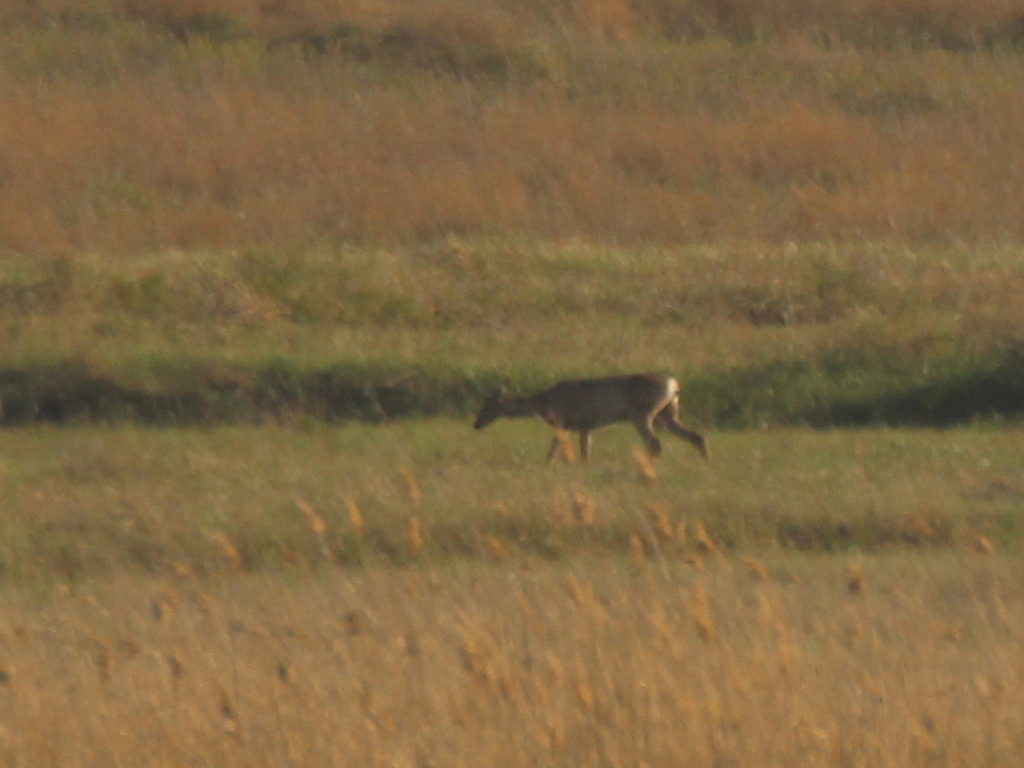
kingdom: Animalia
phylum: Chordata
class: Mammalia
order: Artiodactyla
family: Cervidae
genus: Capreolus
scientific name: Capreolus pygargus
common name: Siberian roe
